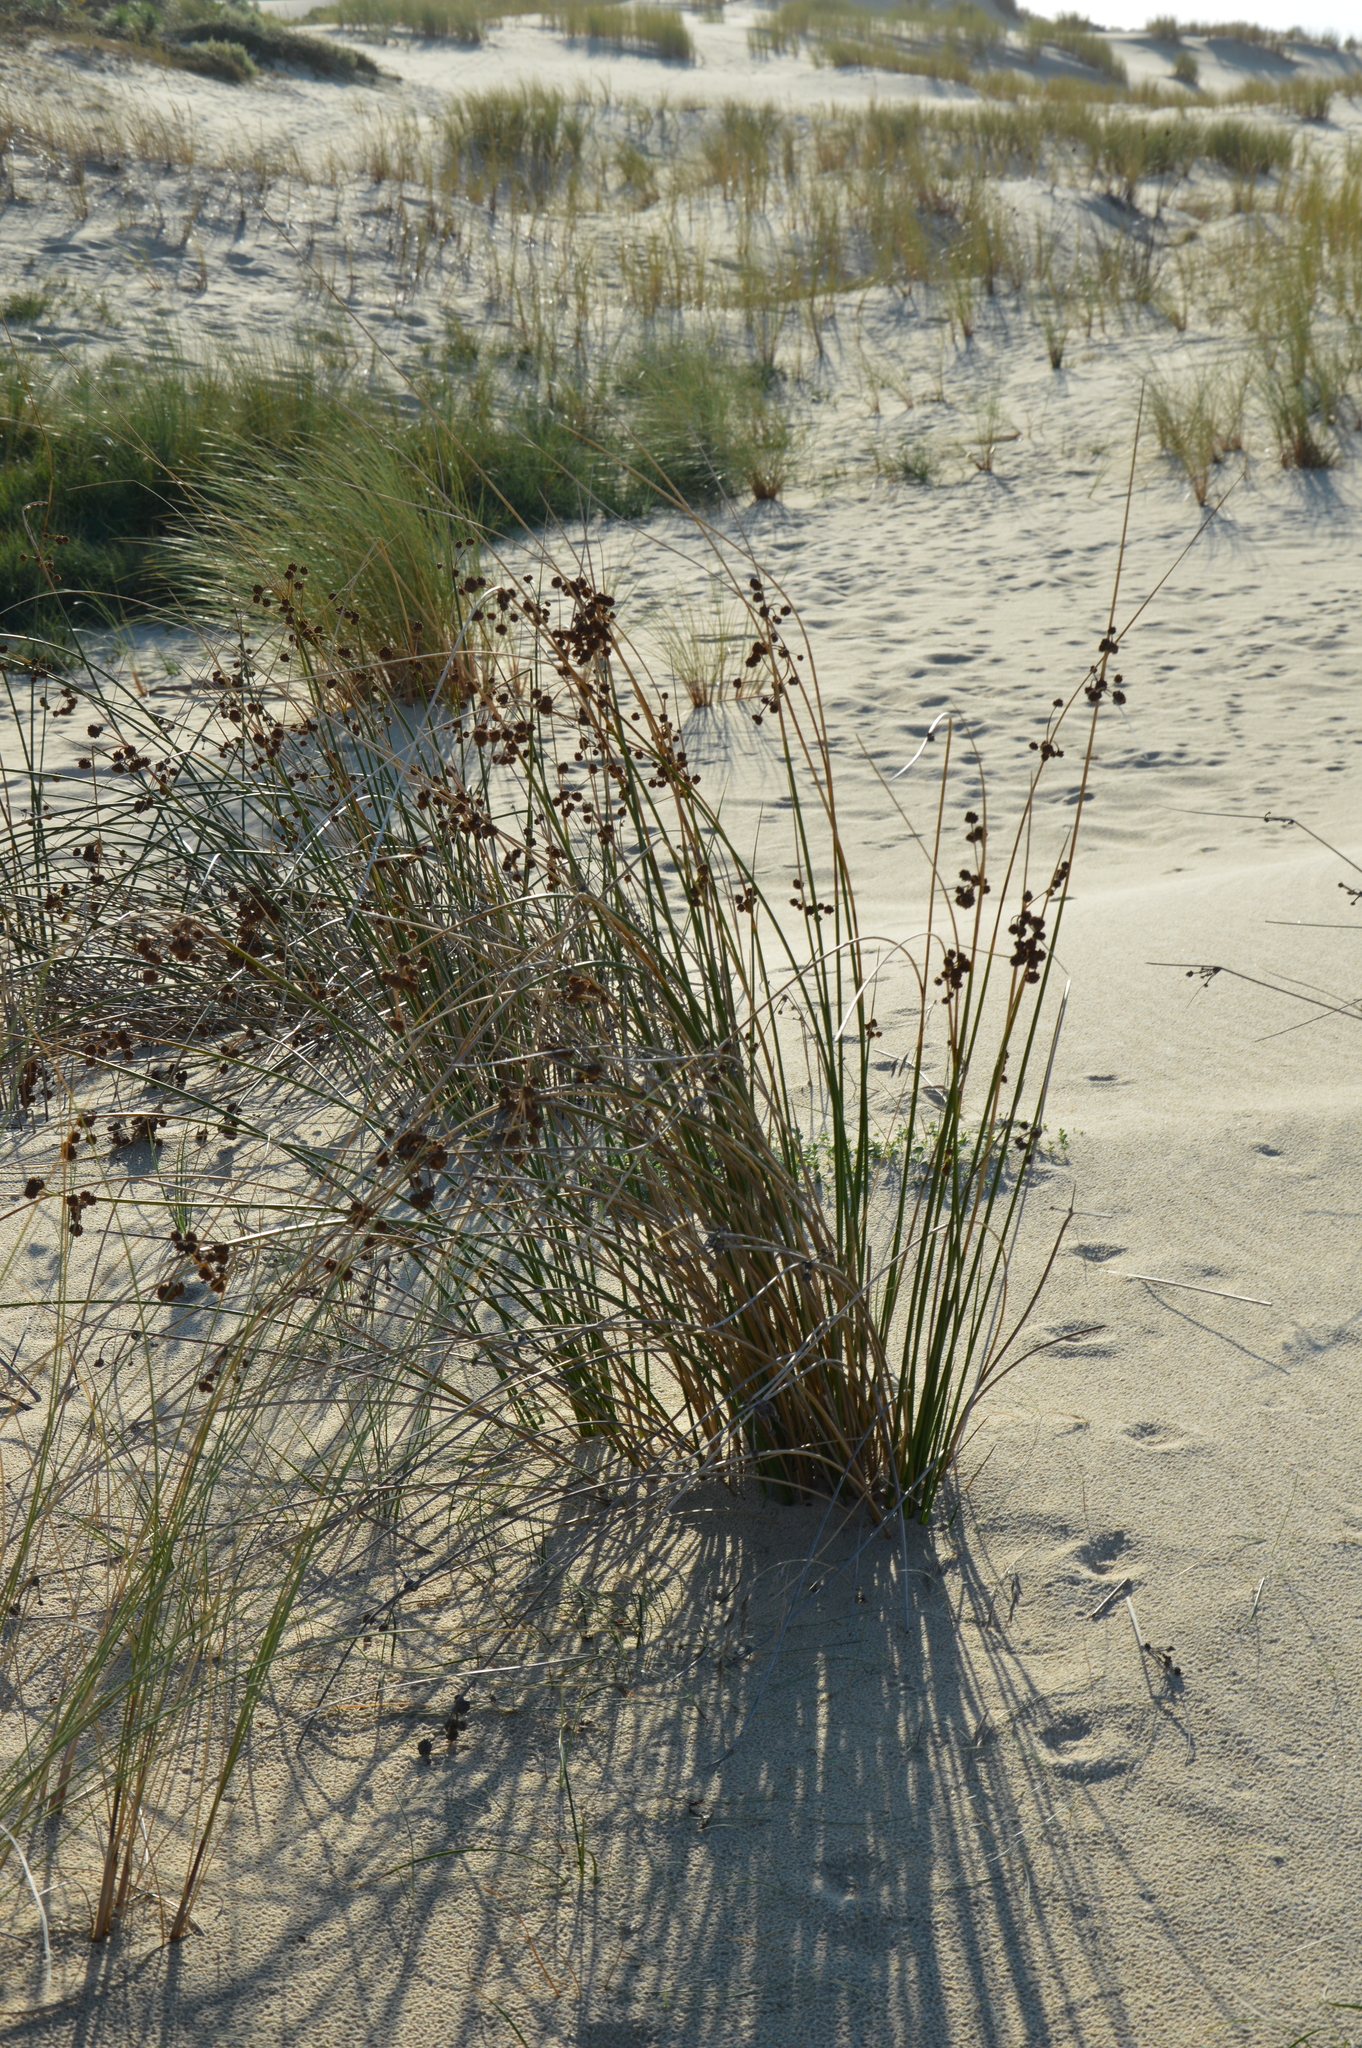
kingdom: Plantae
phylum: Tracheophyta
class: Liliopsida
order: Poales
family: Cyperaceae
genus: Scirpoides
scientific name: Scirpoides holoschoenus
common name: Round-headed club-rush
